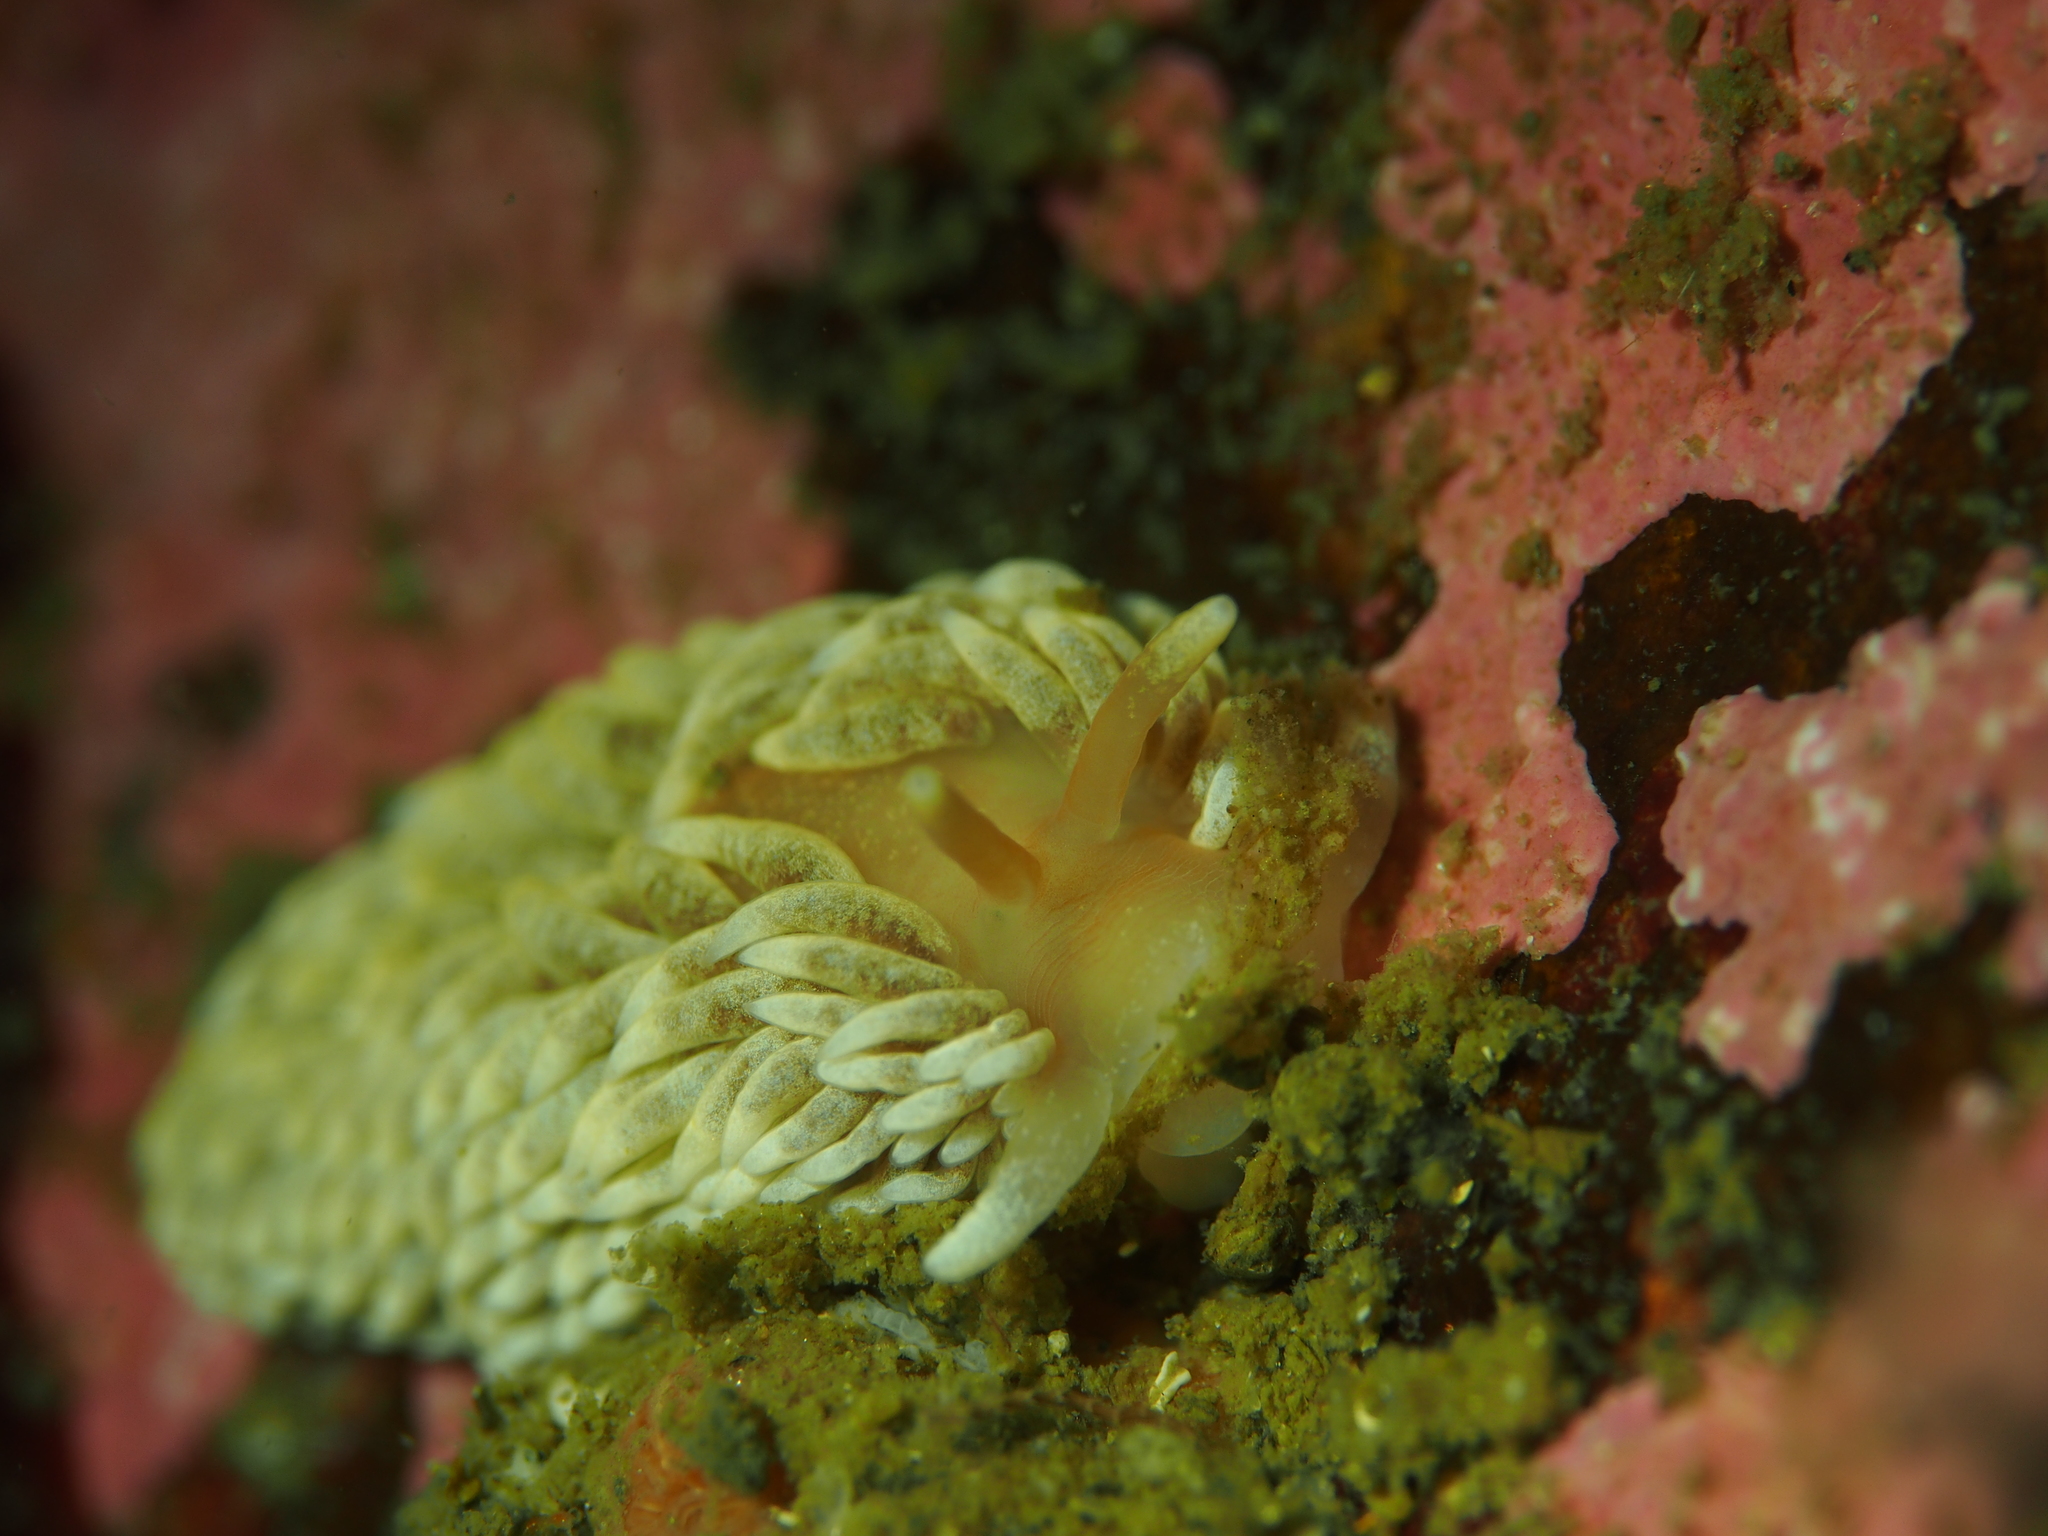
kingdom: Animalia
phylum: Mollusca
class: Gastropoda
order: Nudibranchia
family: Aeolidiidae
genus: Aeolidiella
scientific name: Aeolidiella glauca
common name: Orange-brown aeolid
